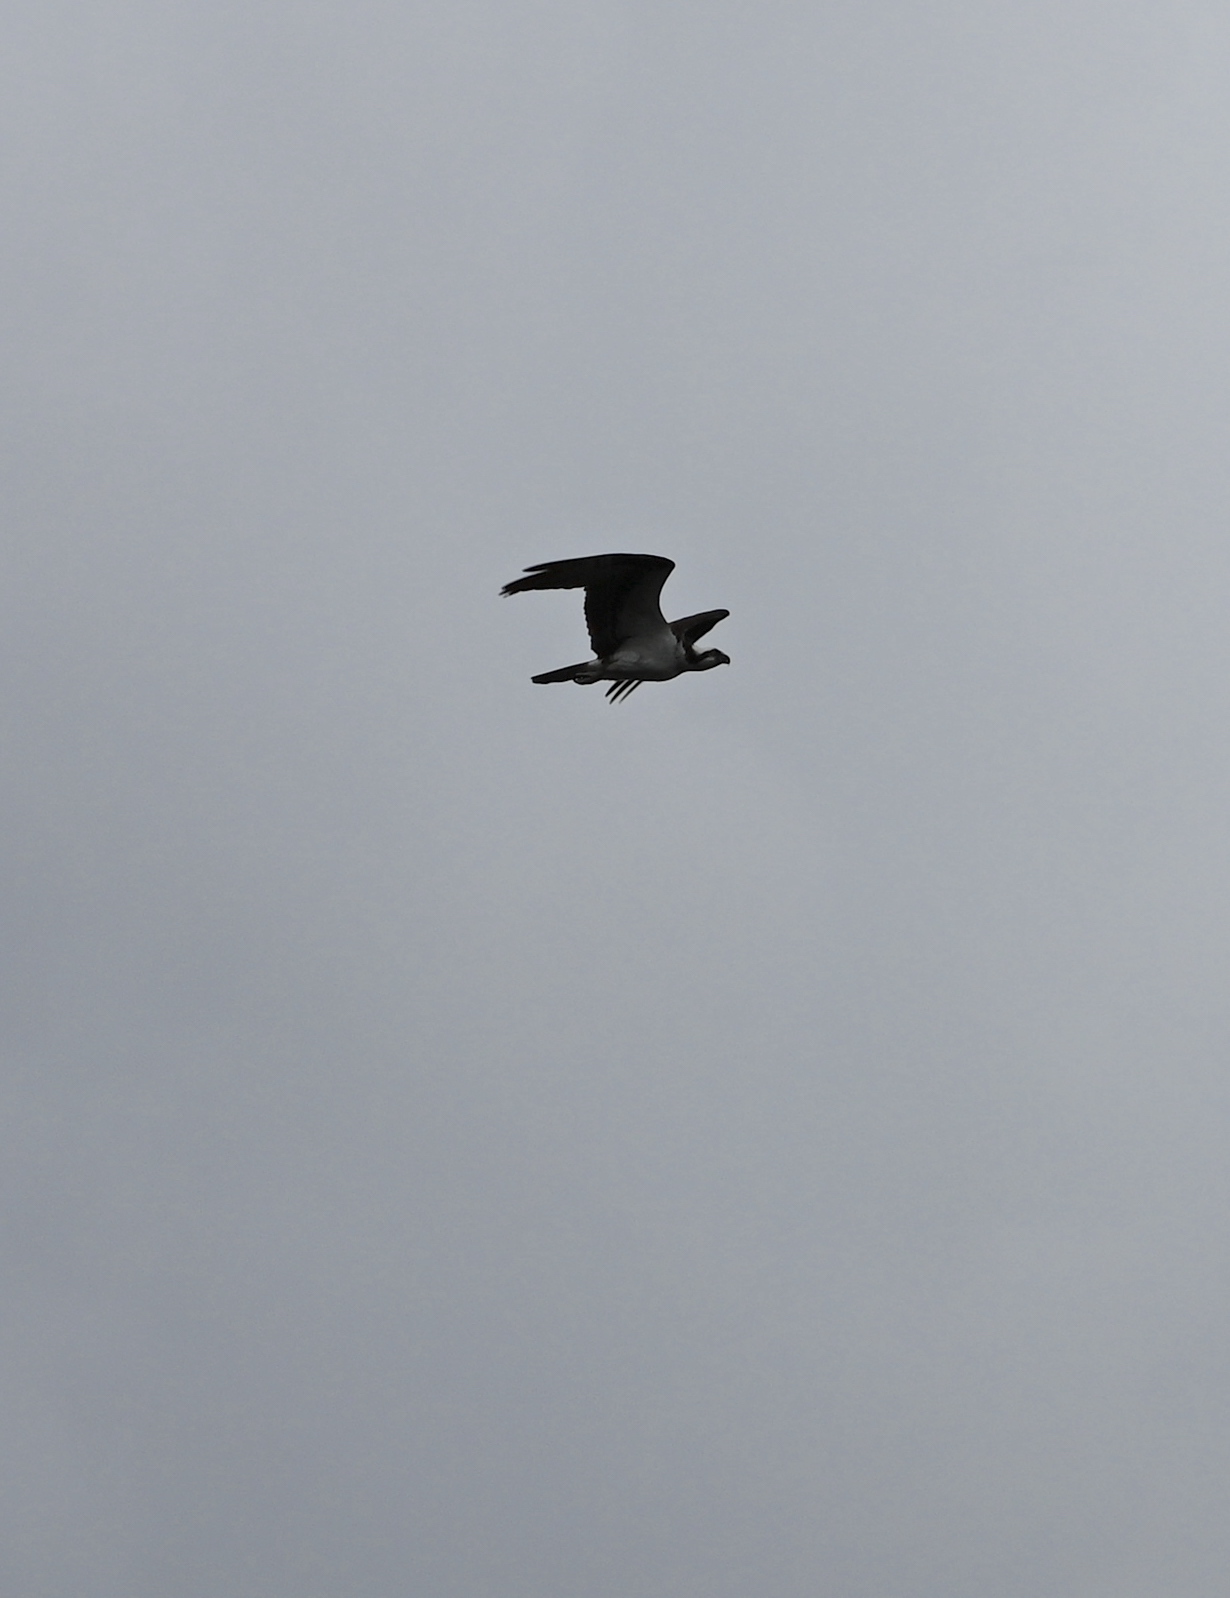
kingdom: Animalia
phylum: Chordata
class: Aves
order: Accipitriformes
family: Pandionidae
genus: Pandion
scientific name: Pandion haliaetus
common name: Osprey
